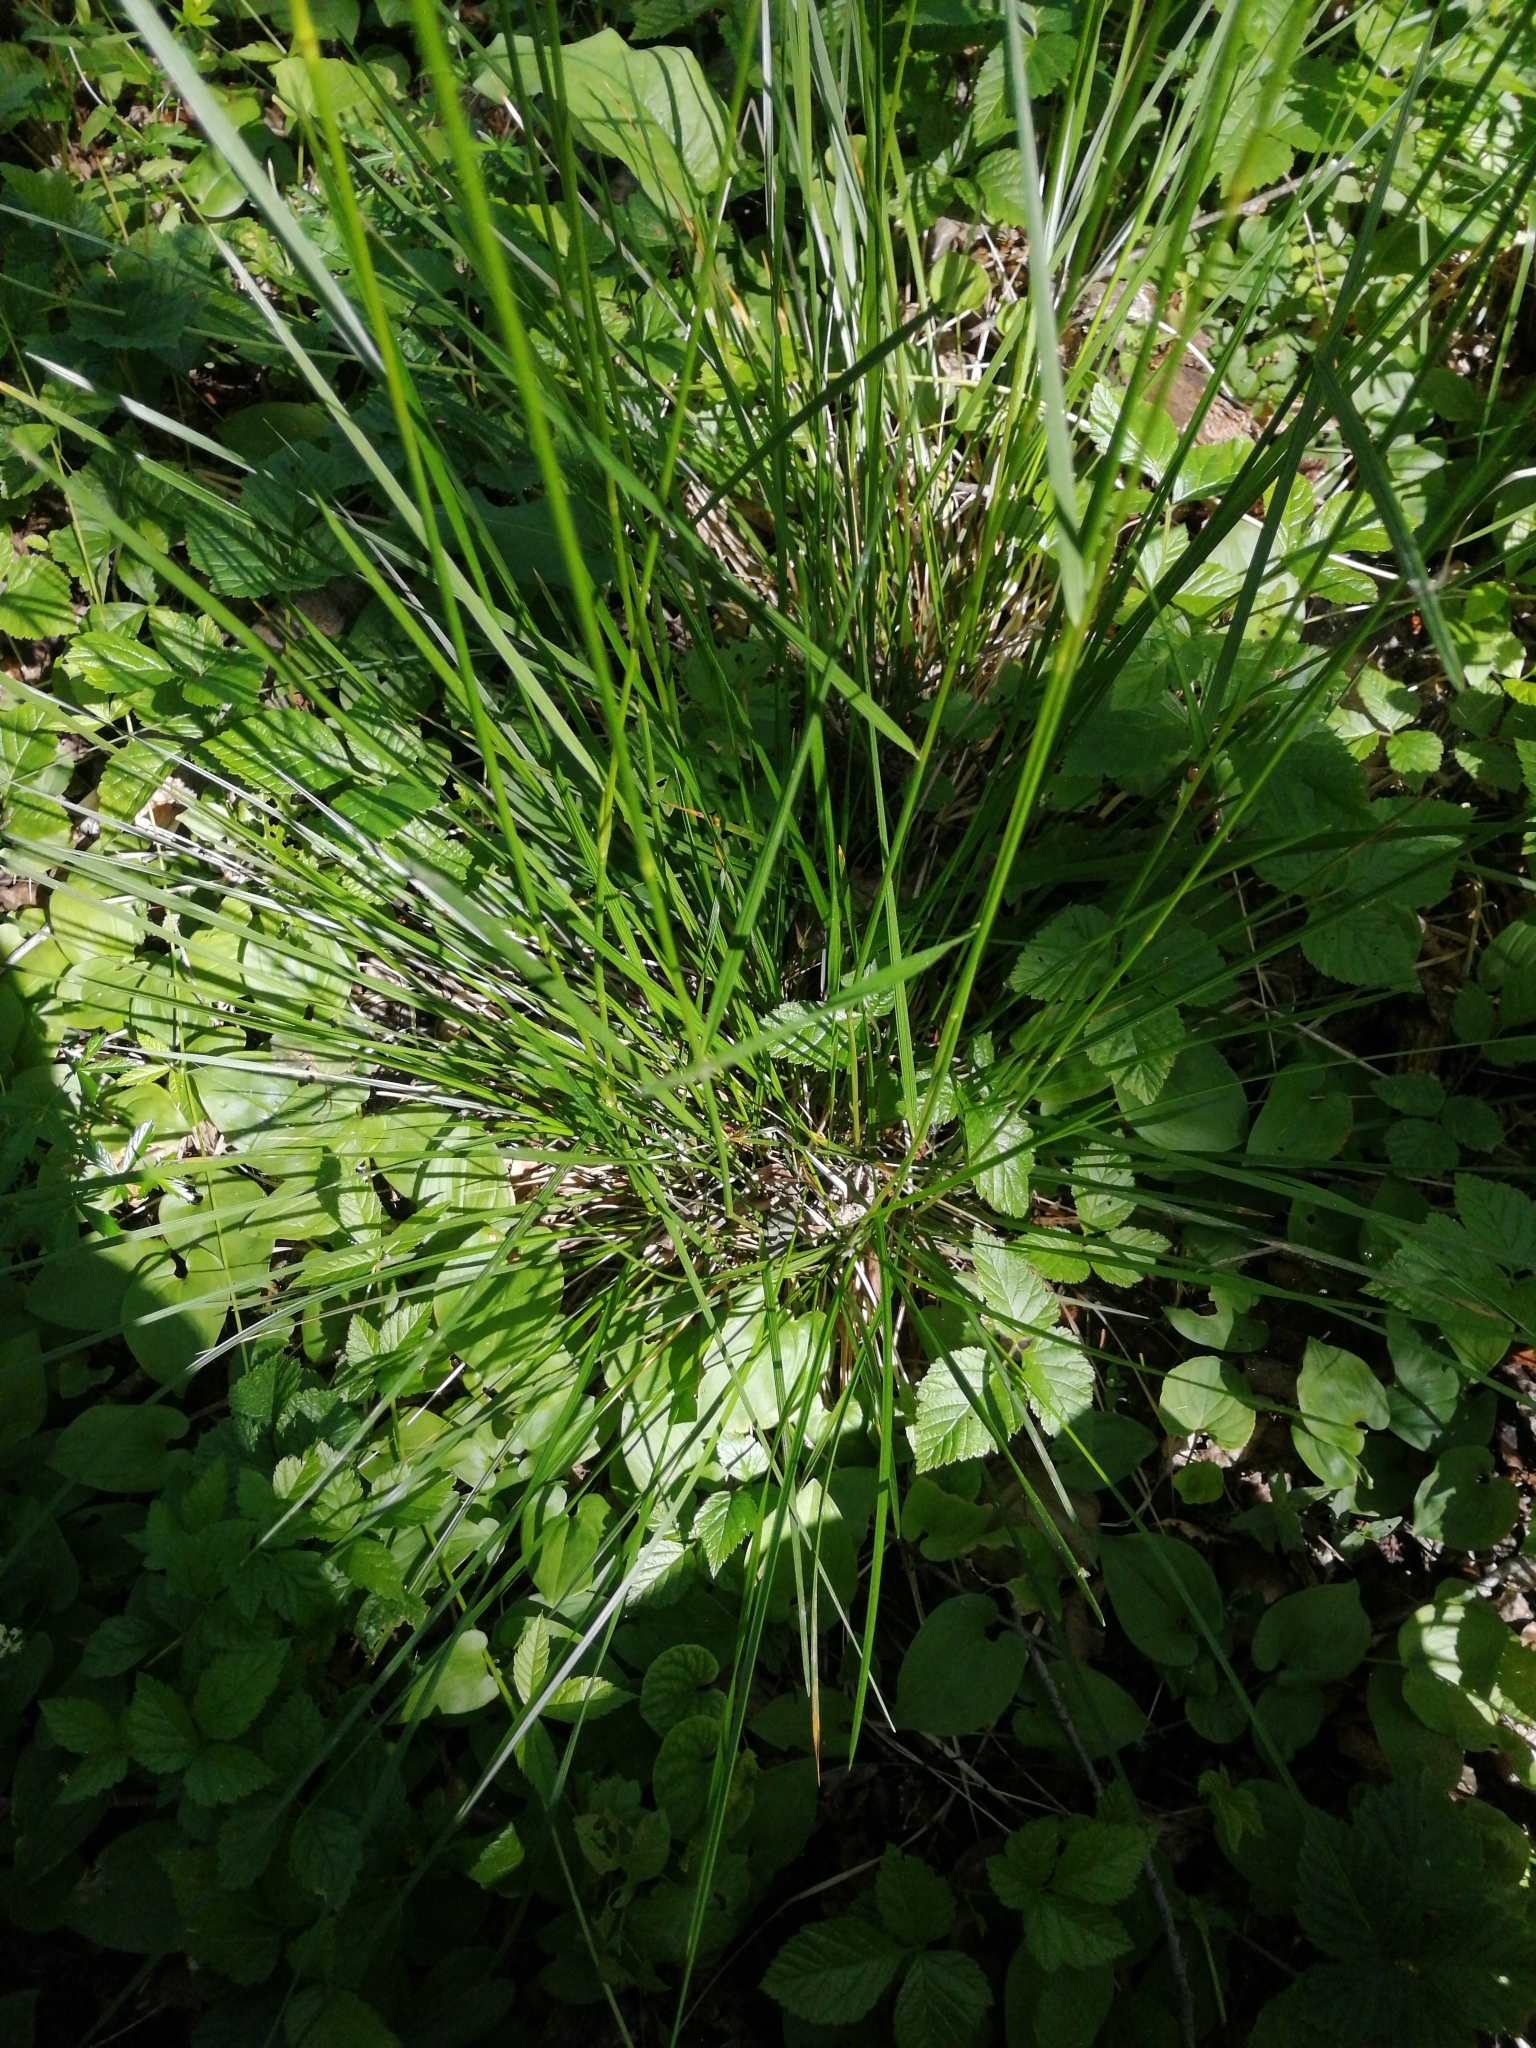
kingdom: Plantae
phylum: Tracheophyta
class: Liliopsida
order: Poales
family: Poaceae
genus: Deschampsia
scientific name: Deschampsia cespitosa
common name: Tufted hair-grass
